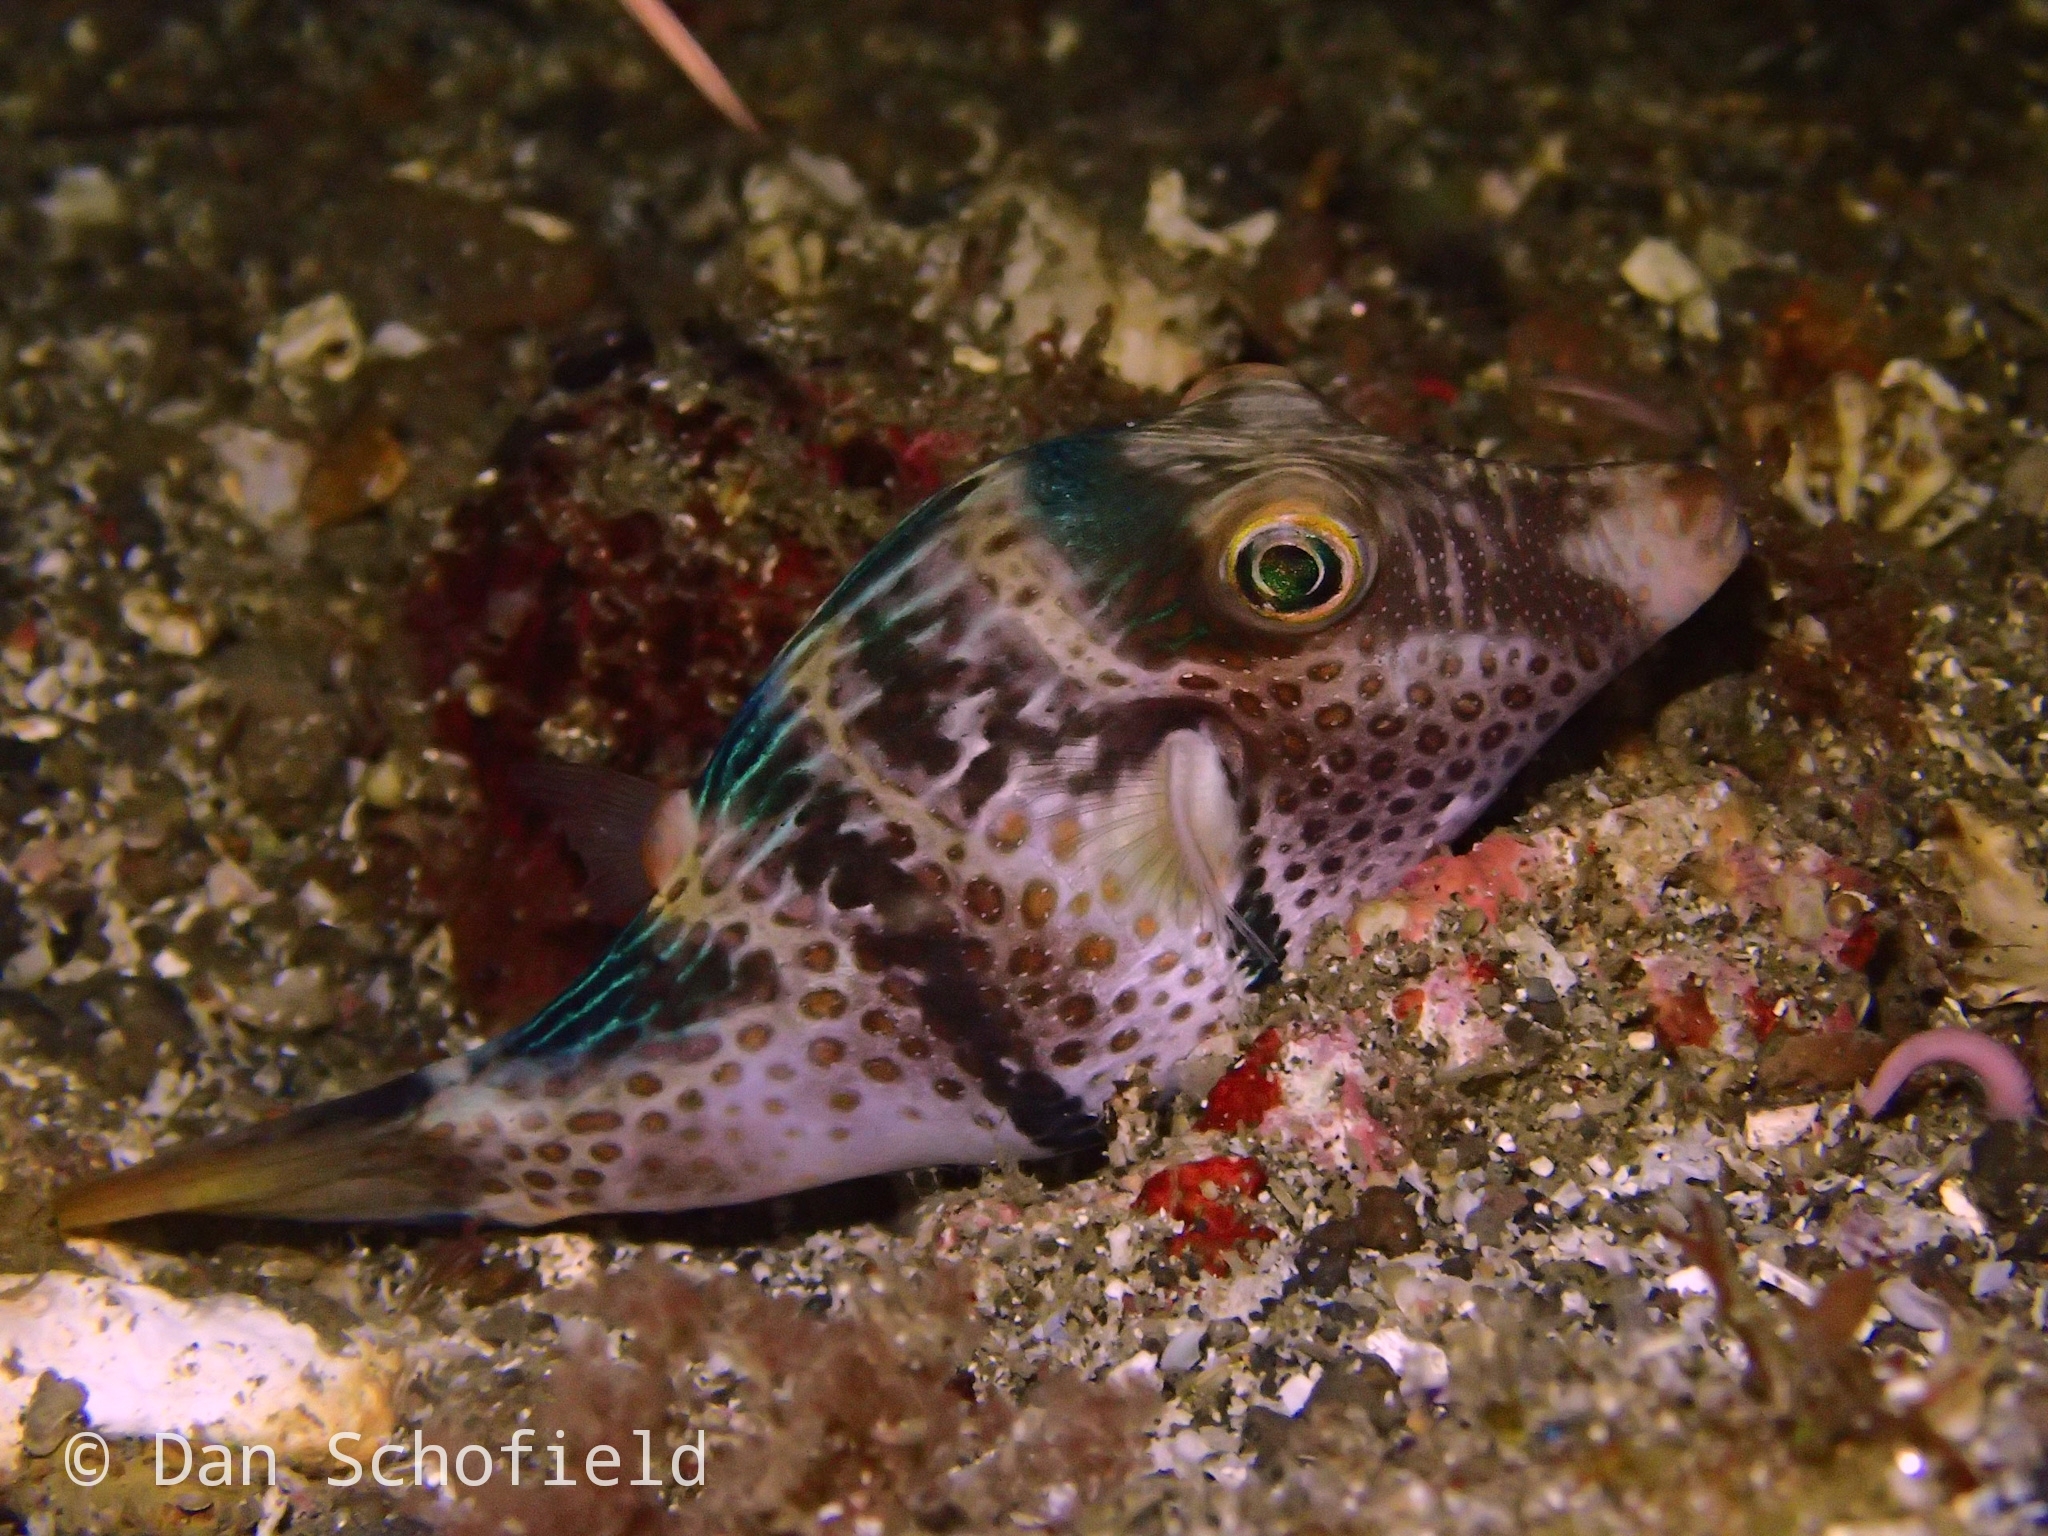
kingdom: Animalia
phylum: Chordata
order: Tetraodontiformes
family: Tetraodontidae
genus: Canthigaster
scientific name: Canthigaster valentini
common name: Banded toby
